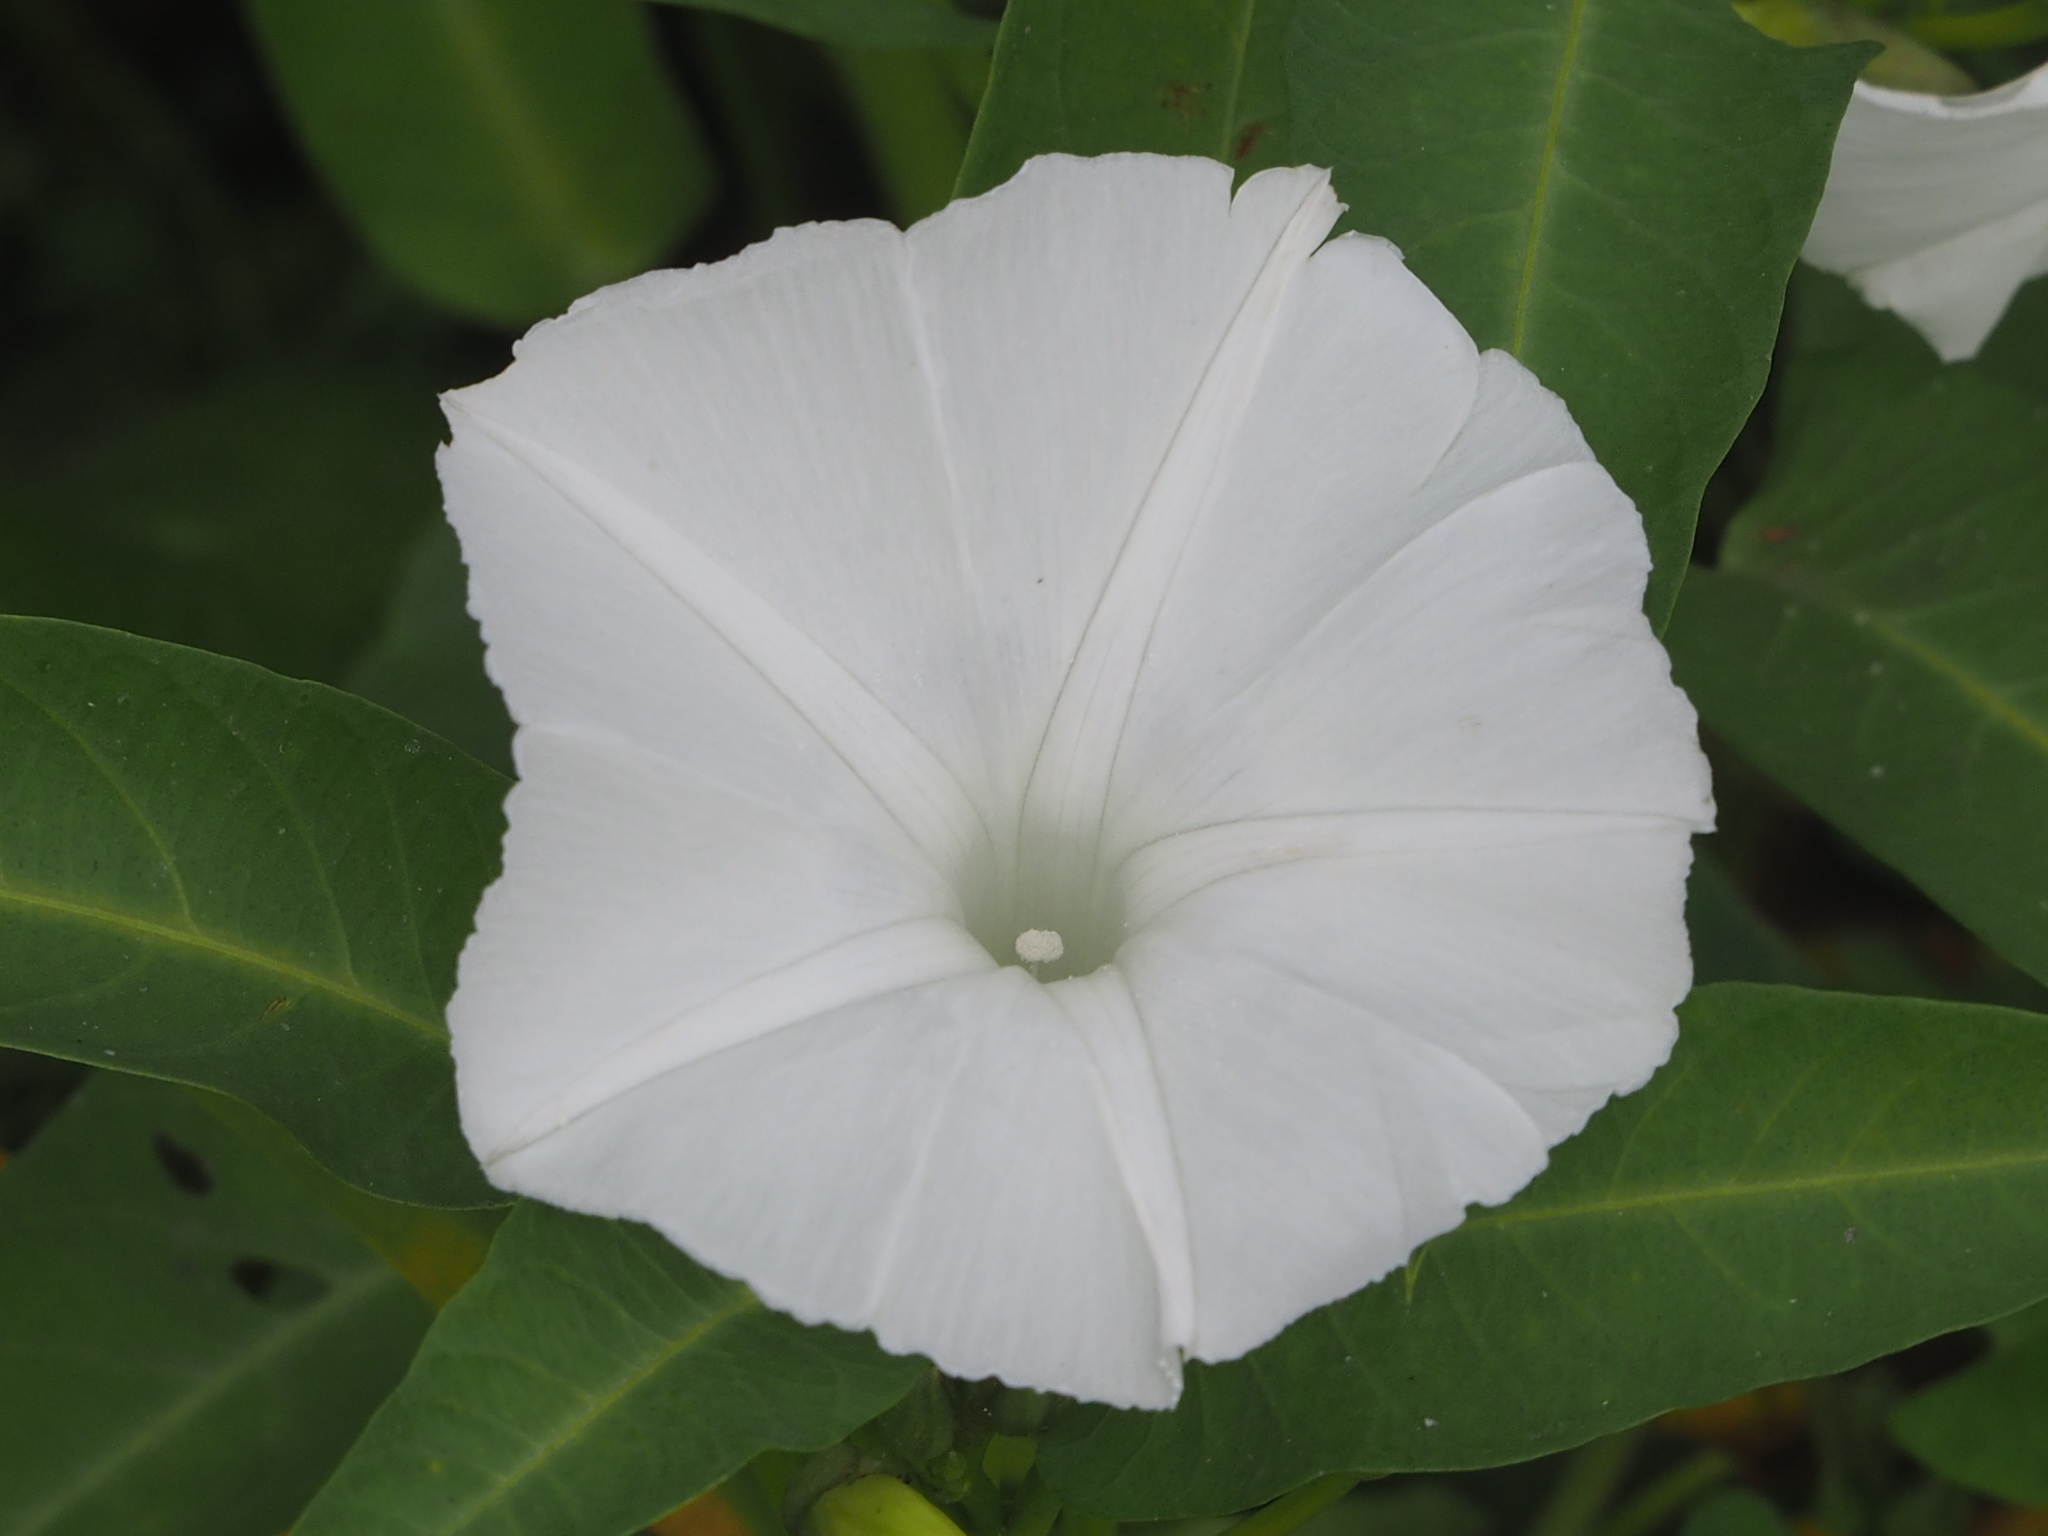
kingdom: Plantae
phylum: Tracheophyta
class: Magnoliopsida
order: Solanales
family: Convolvulaceae
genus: Ipomoea
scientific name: Ipomoea aquatica
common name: Swamp morning-glory
